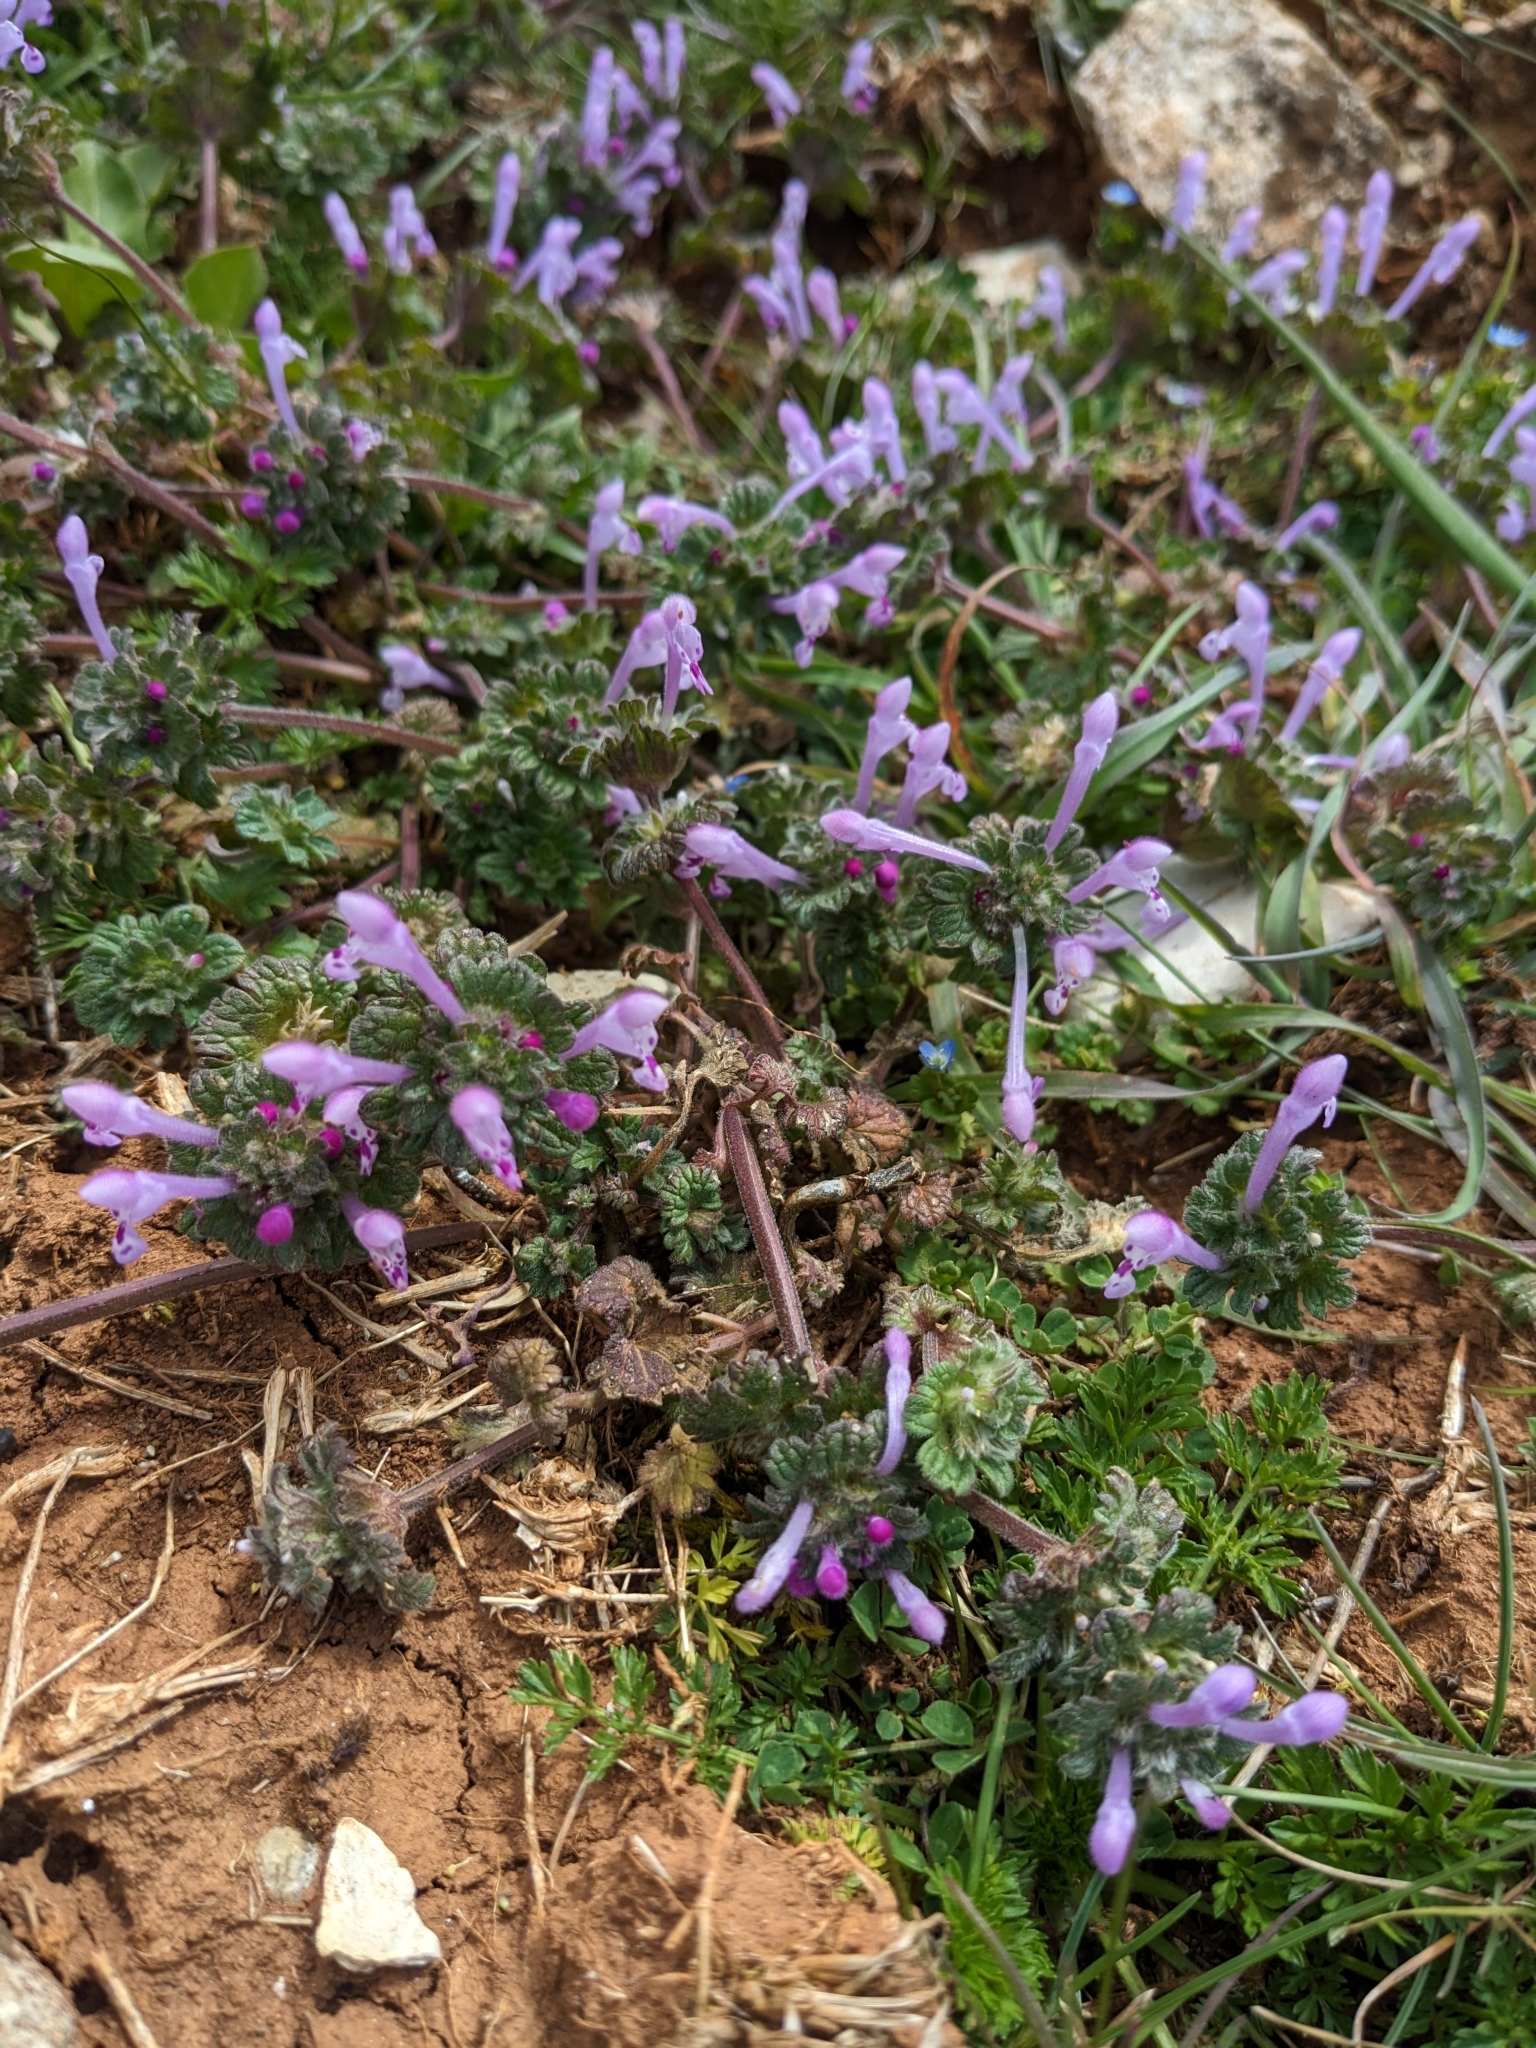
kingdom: Plantae
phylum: Tracheophyta
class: Magnoliopsida
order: Lamiales
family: Lamiaceae
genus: Lamium
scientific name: Lamium amplexicaule
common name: Henbit dead-nettle
